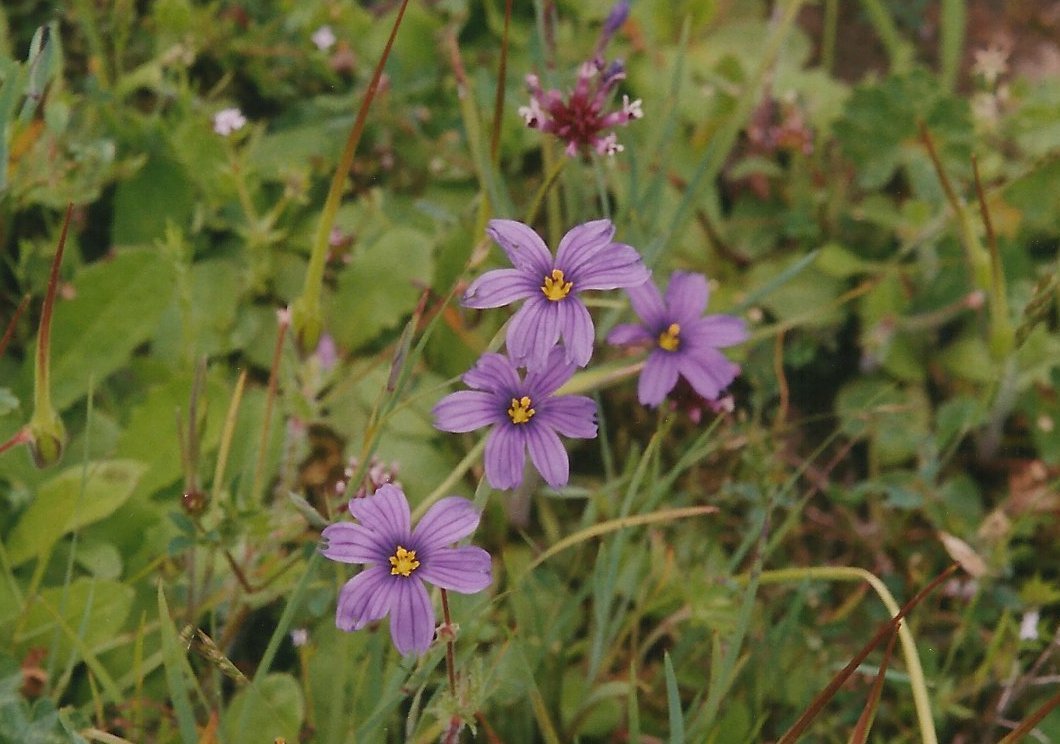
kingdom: Plantae
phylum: Tracheophyta
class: Liliopsida
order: Asparagales
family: Iridaceae
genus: Sisyrinchium
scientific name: Sisyrinchium bellum
